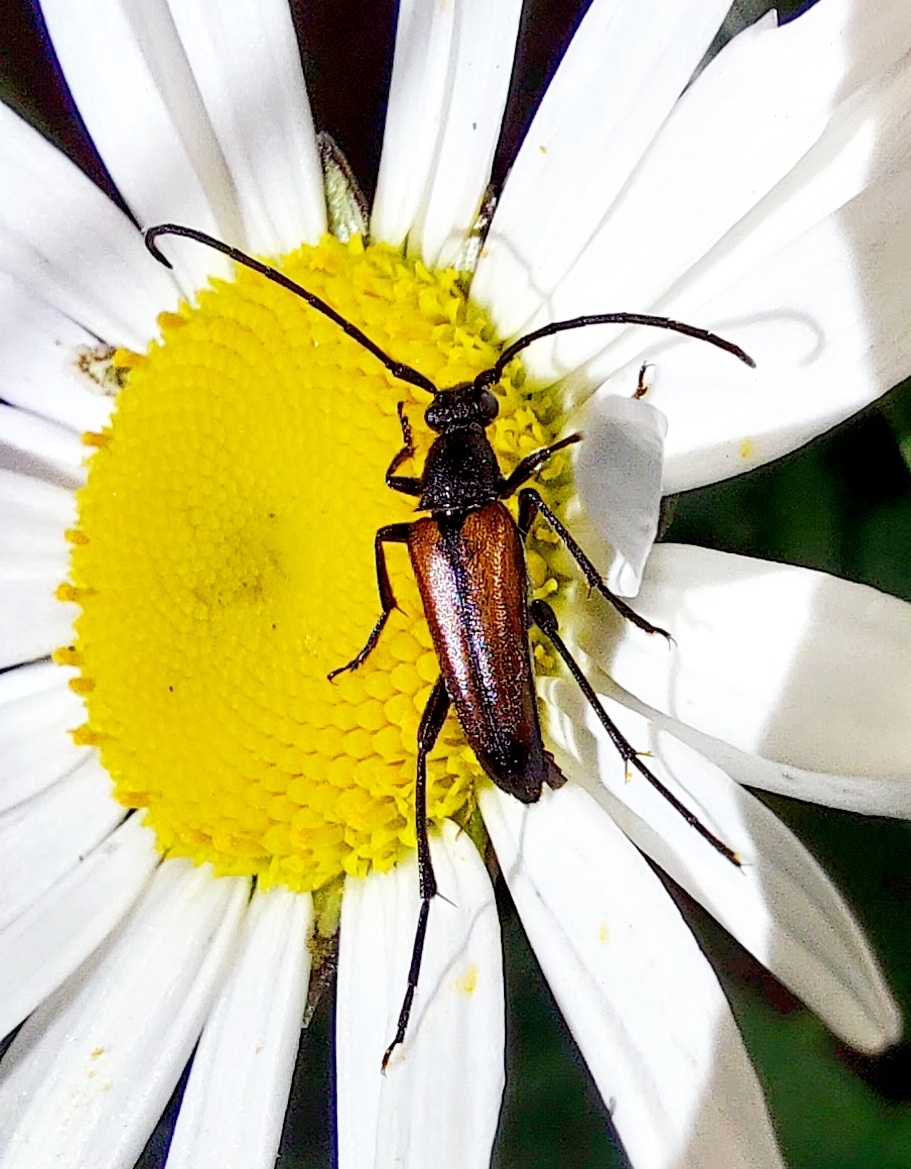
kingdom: Animalia
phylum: Arthropoda
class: Insecta
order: Coleoptera
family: Cerambycidae
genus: Stenurella
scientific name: Stenurella melanura
